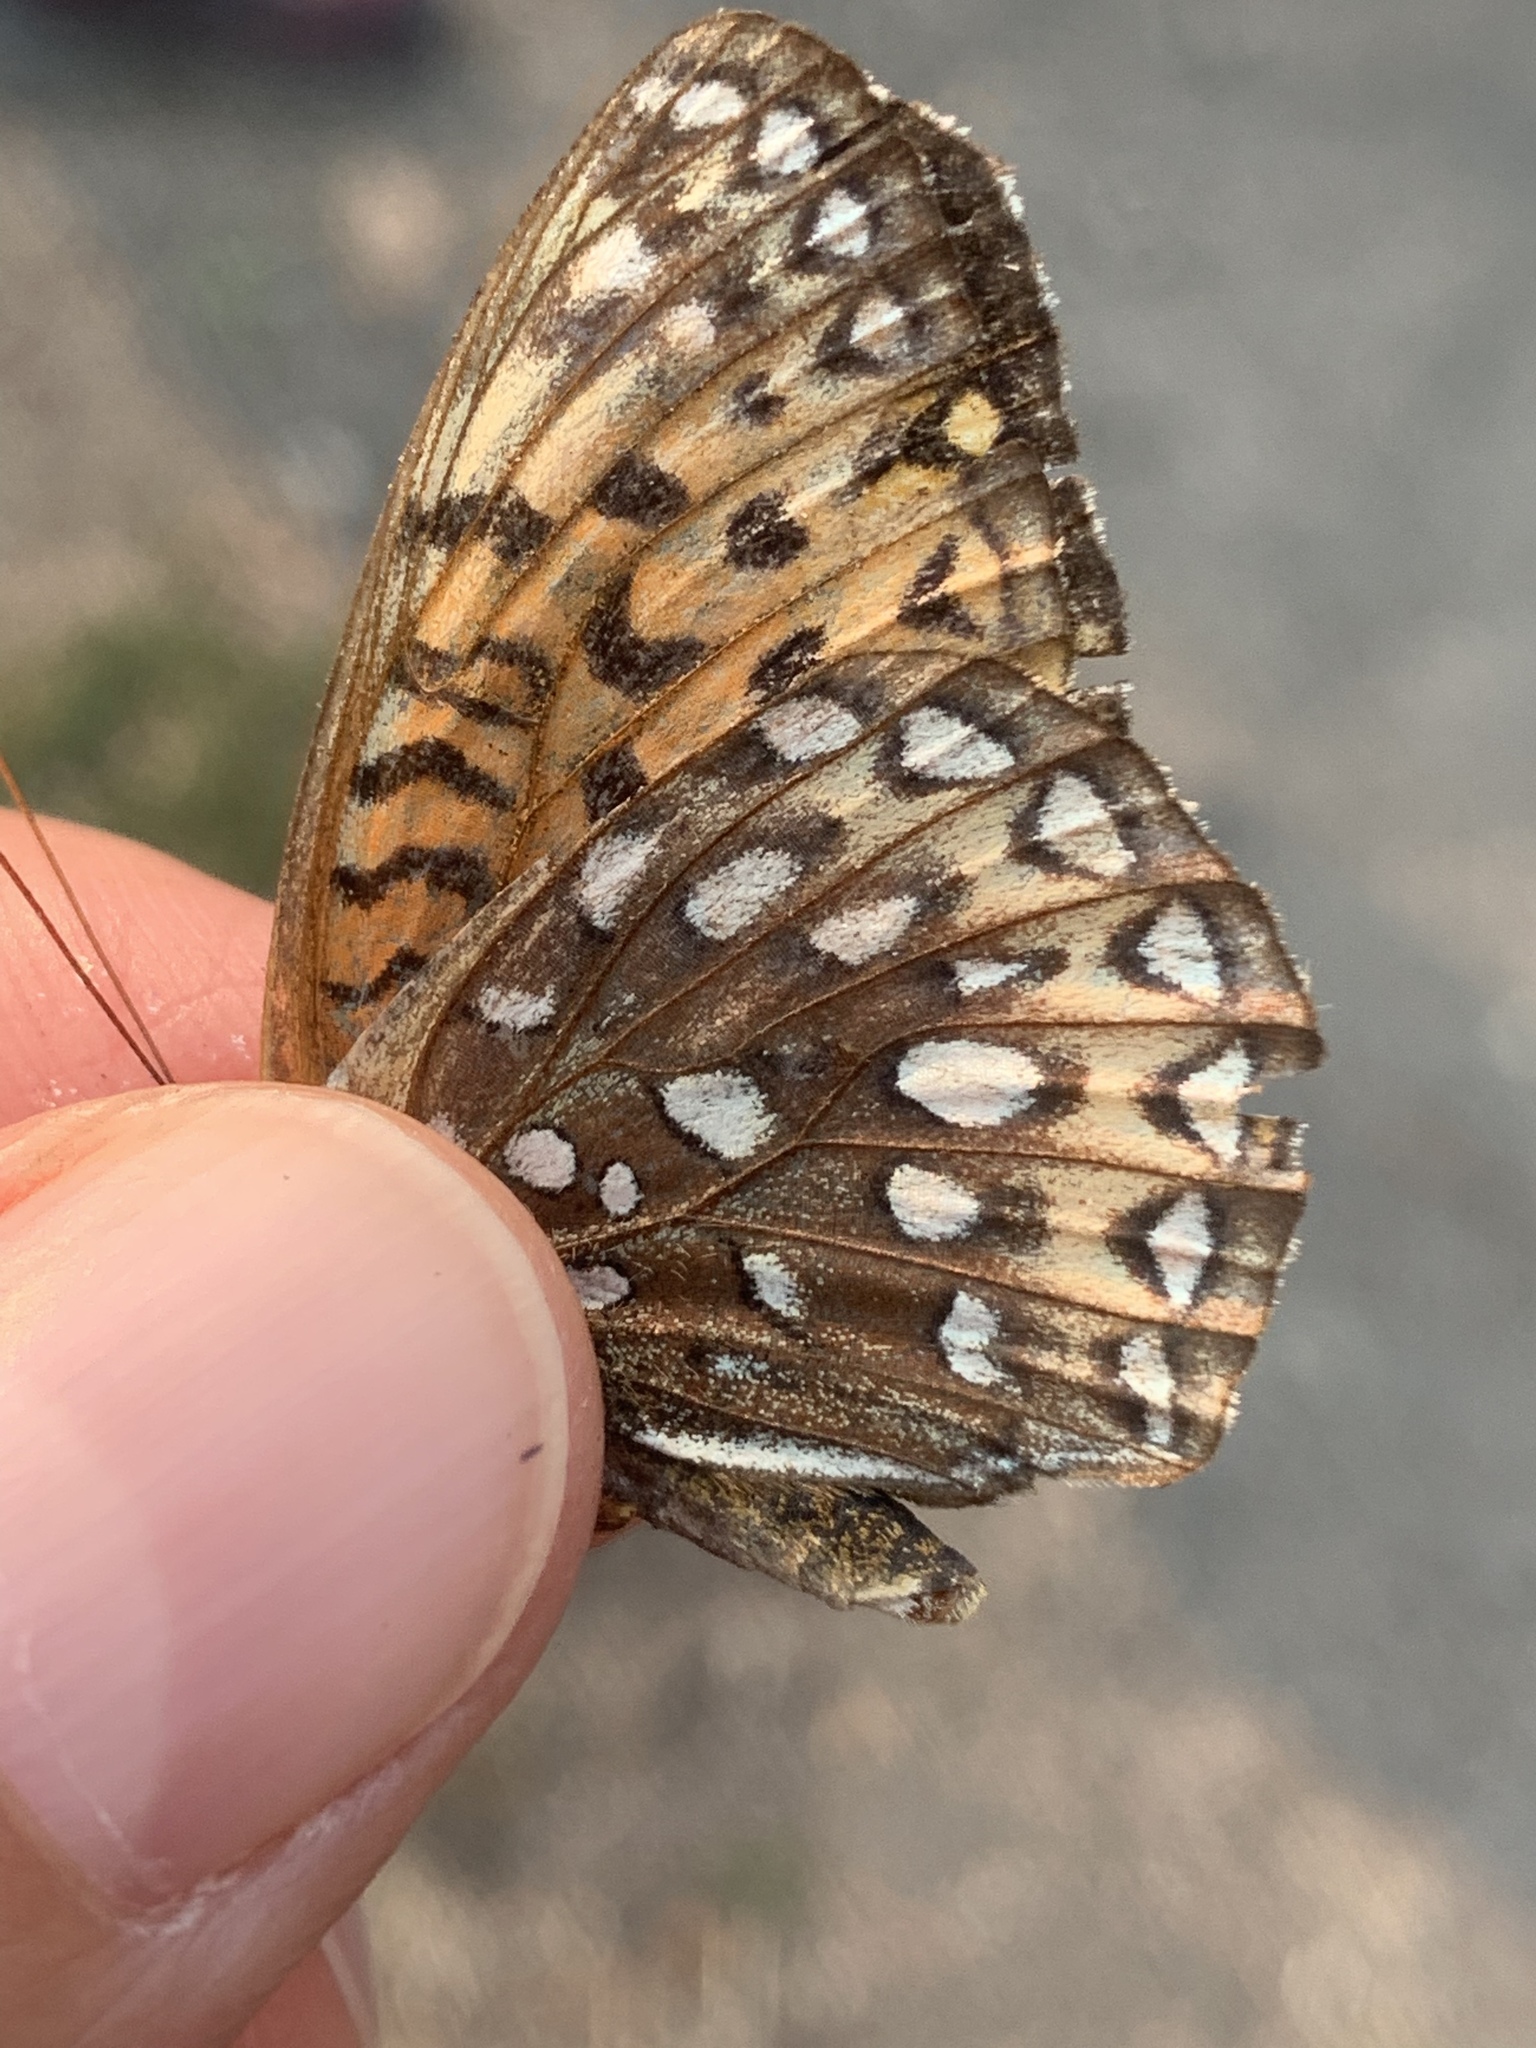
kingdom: Animalia
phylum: Arthropoda
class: Insecta
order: Lepidoptera
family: Nymphalidae
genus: Speyeria
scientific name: Speyeria atlantis
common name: Atlantis fritillary
